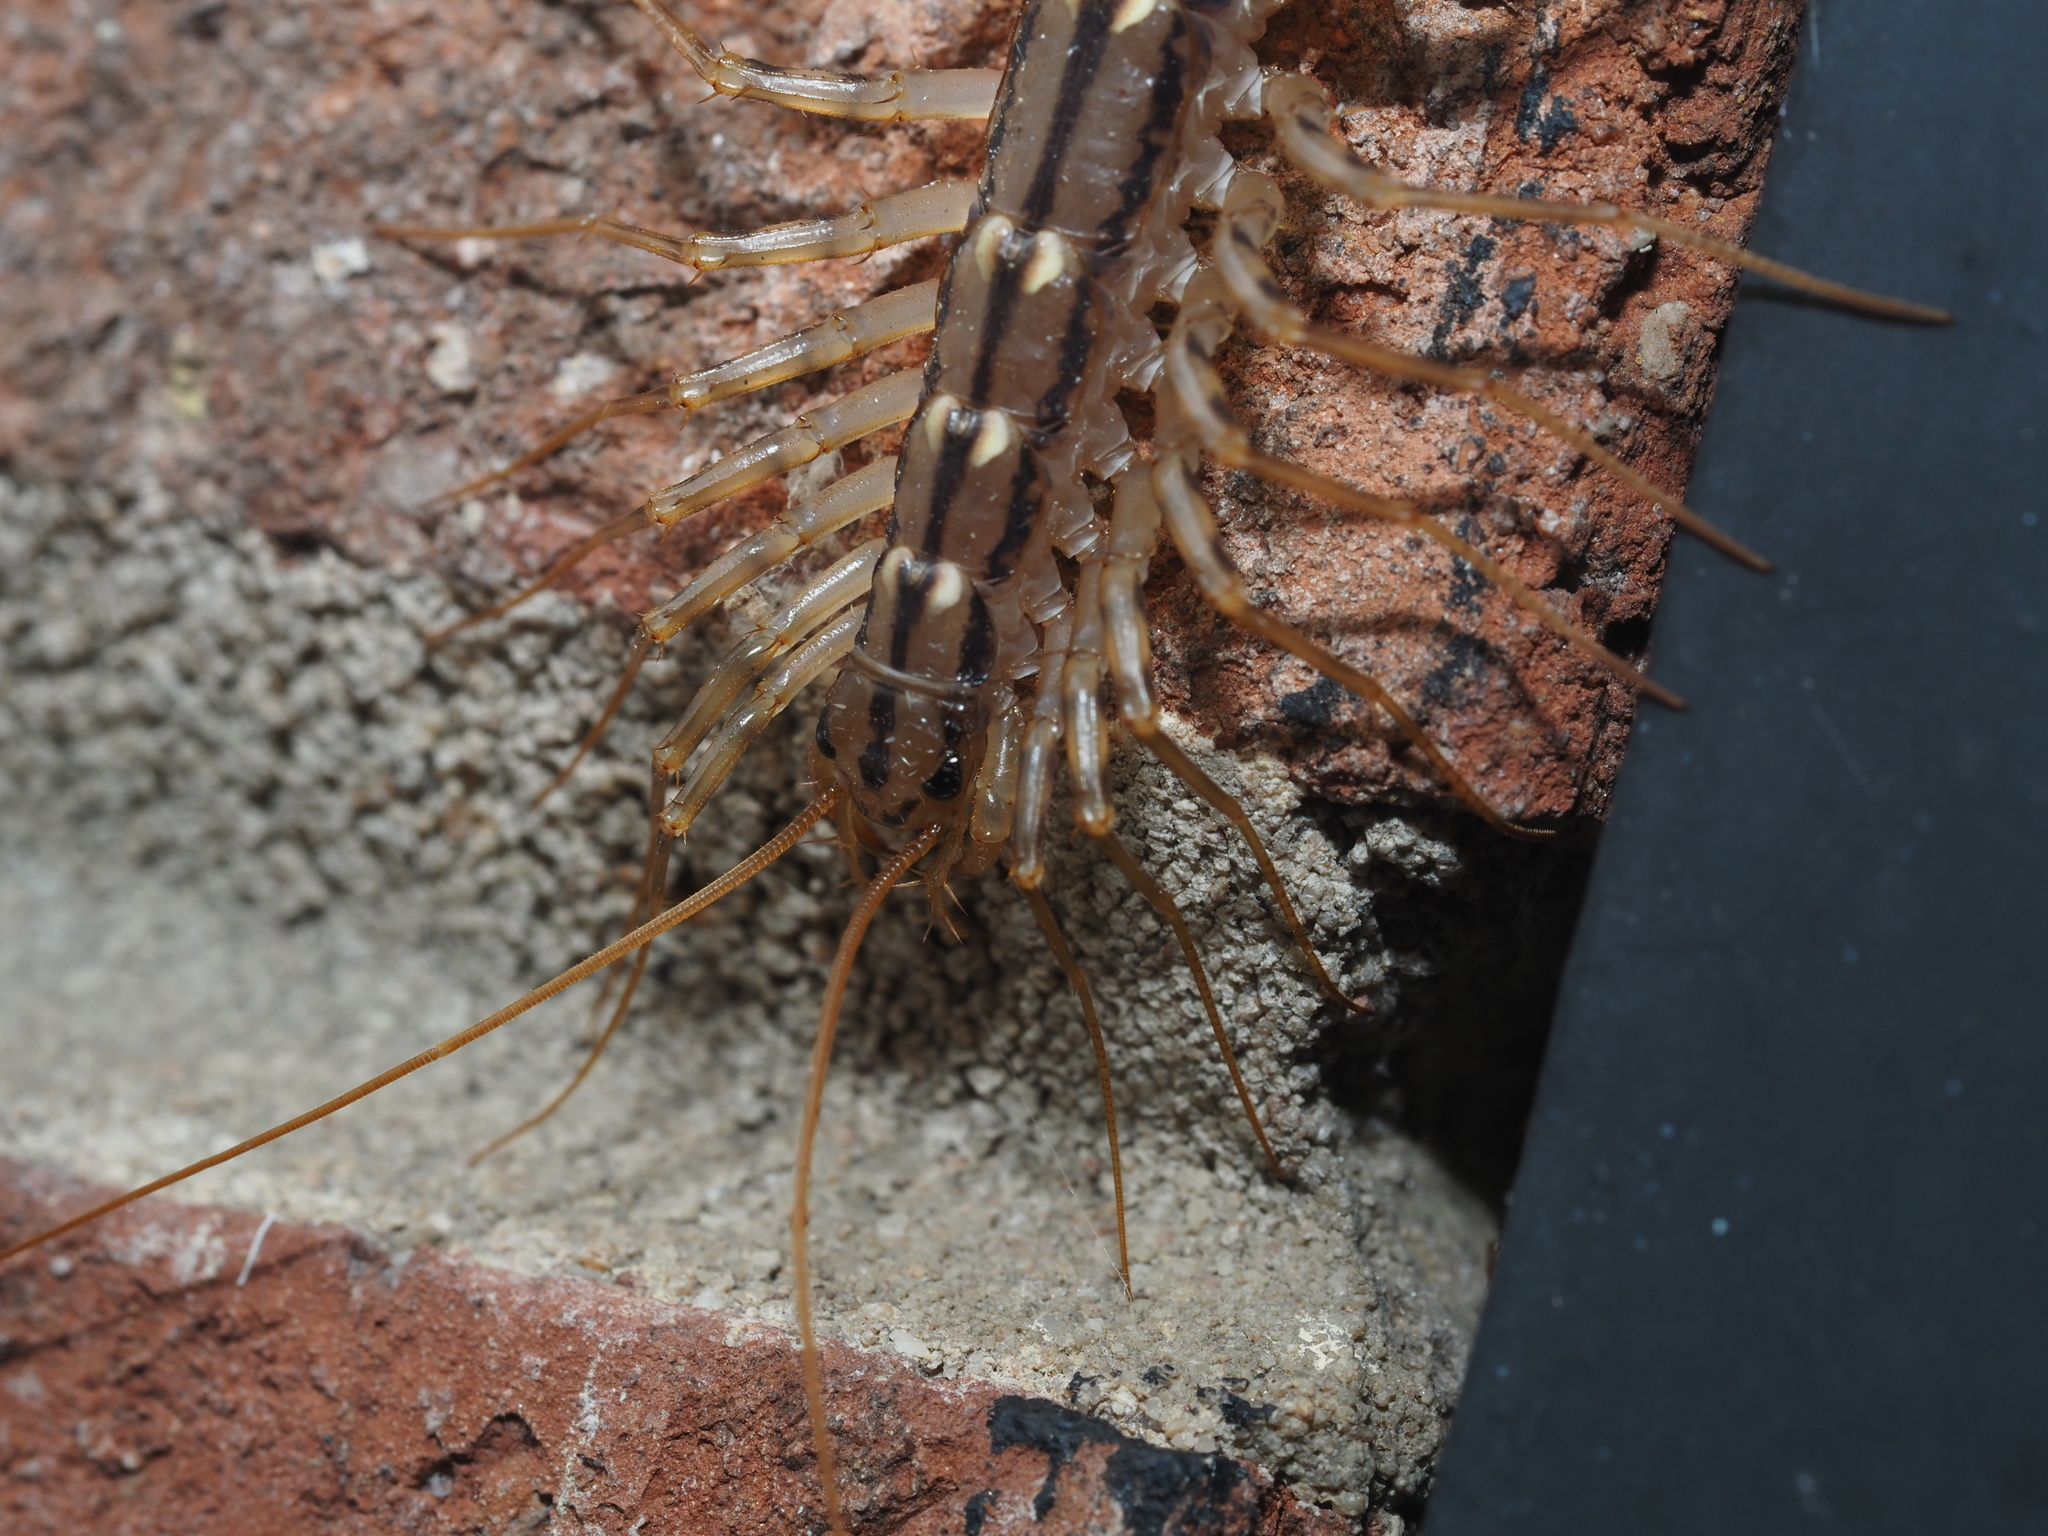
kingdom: Animalia
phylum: Arthropoda
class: Chilopoda
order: Scutigeromorpha
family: Scutigeridae
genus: Scutigera
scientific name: Scutigera coleoptrata
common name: House centipede
